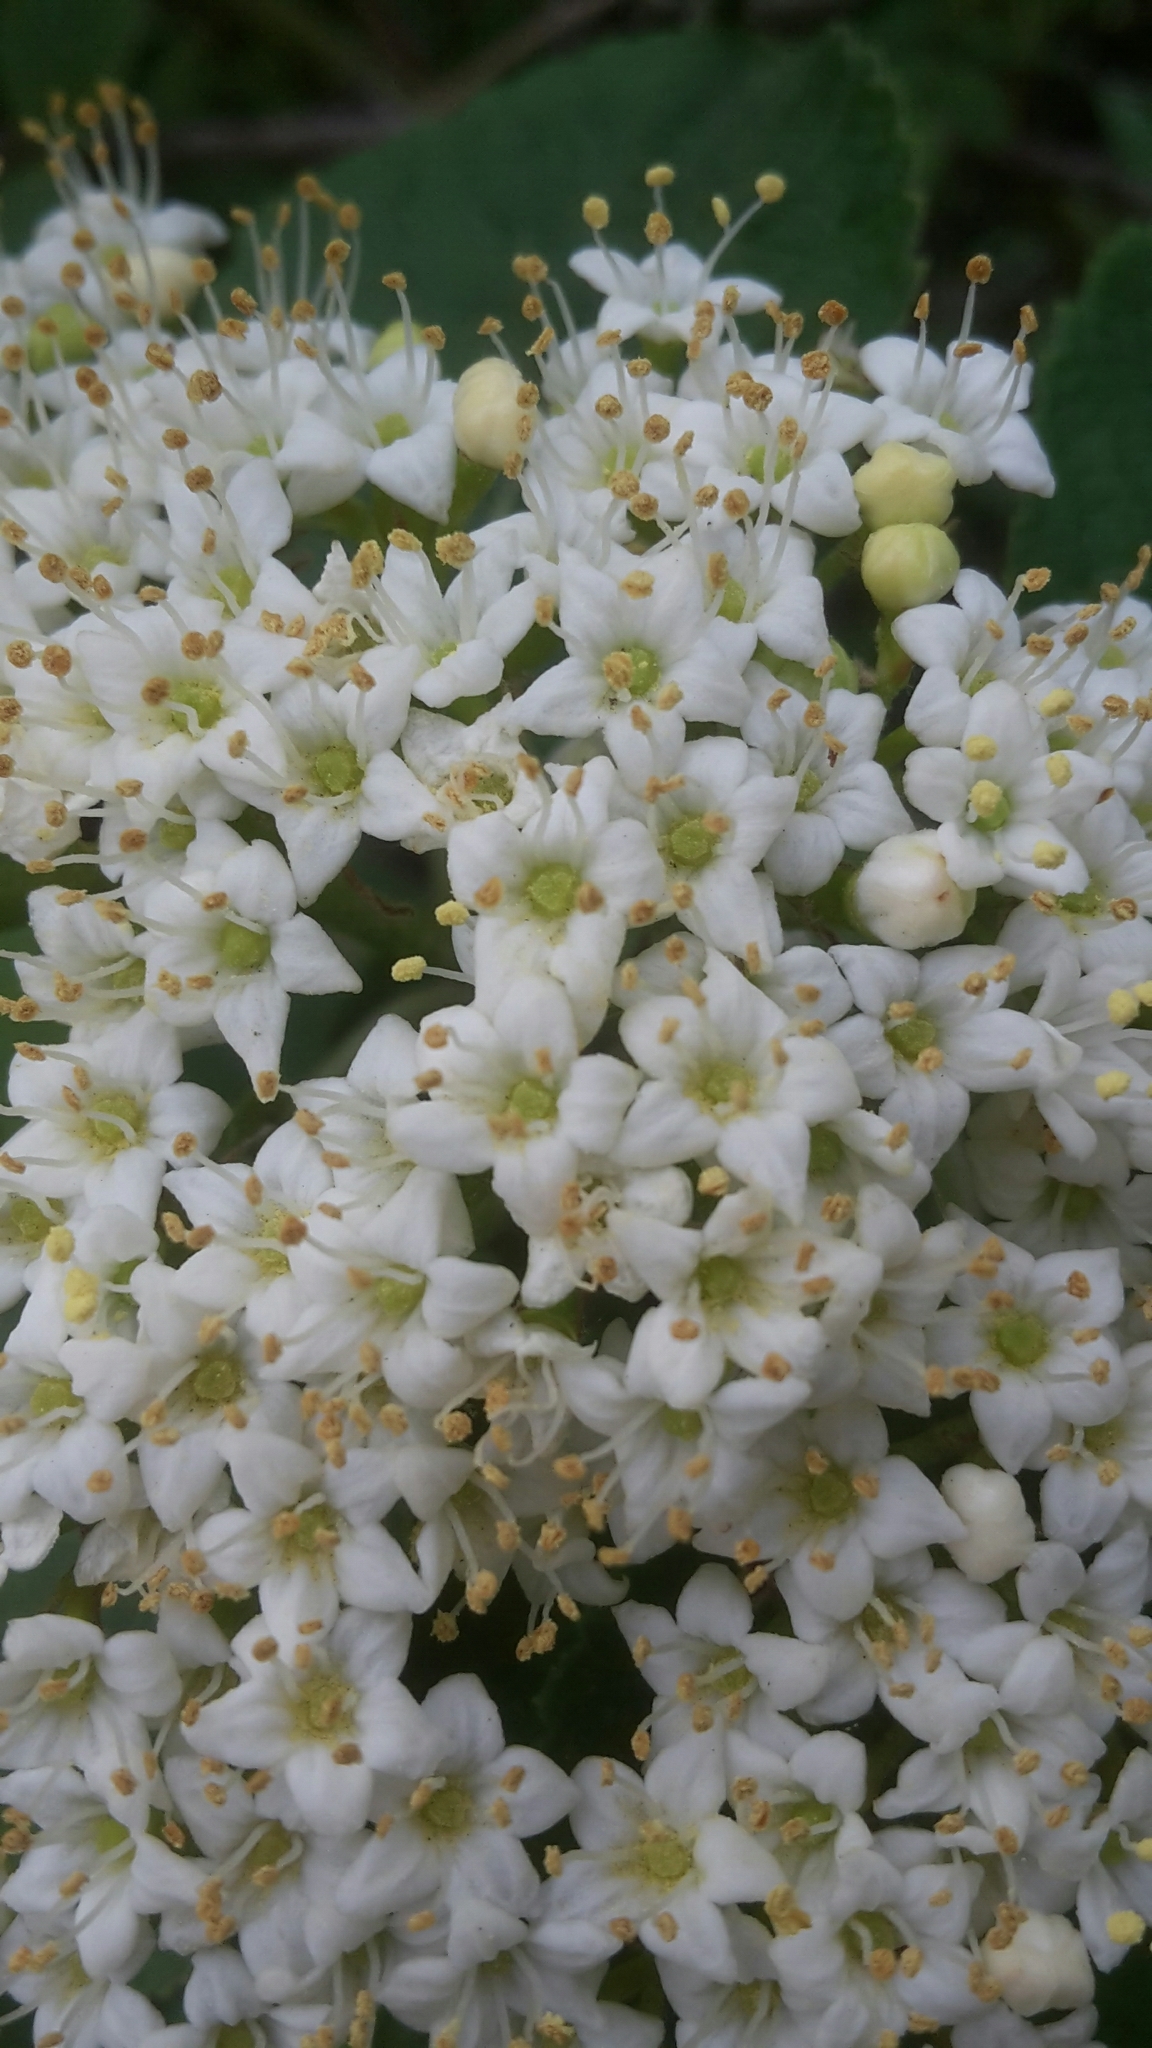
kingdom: Plantae
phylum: Tracheophyta
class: Magnoliopsida
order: Dipsacales
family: Viburnaceae
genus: Viburnum
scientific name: Viburnum lantana
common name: Wayfaring tree
